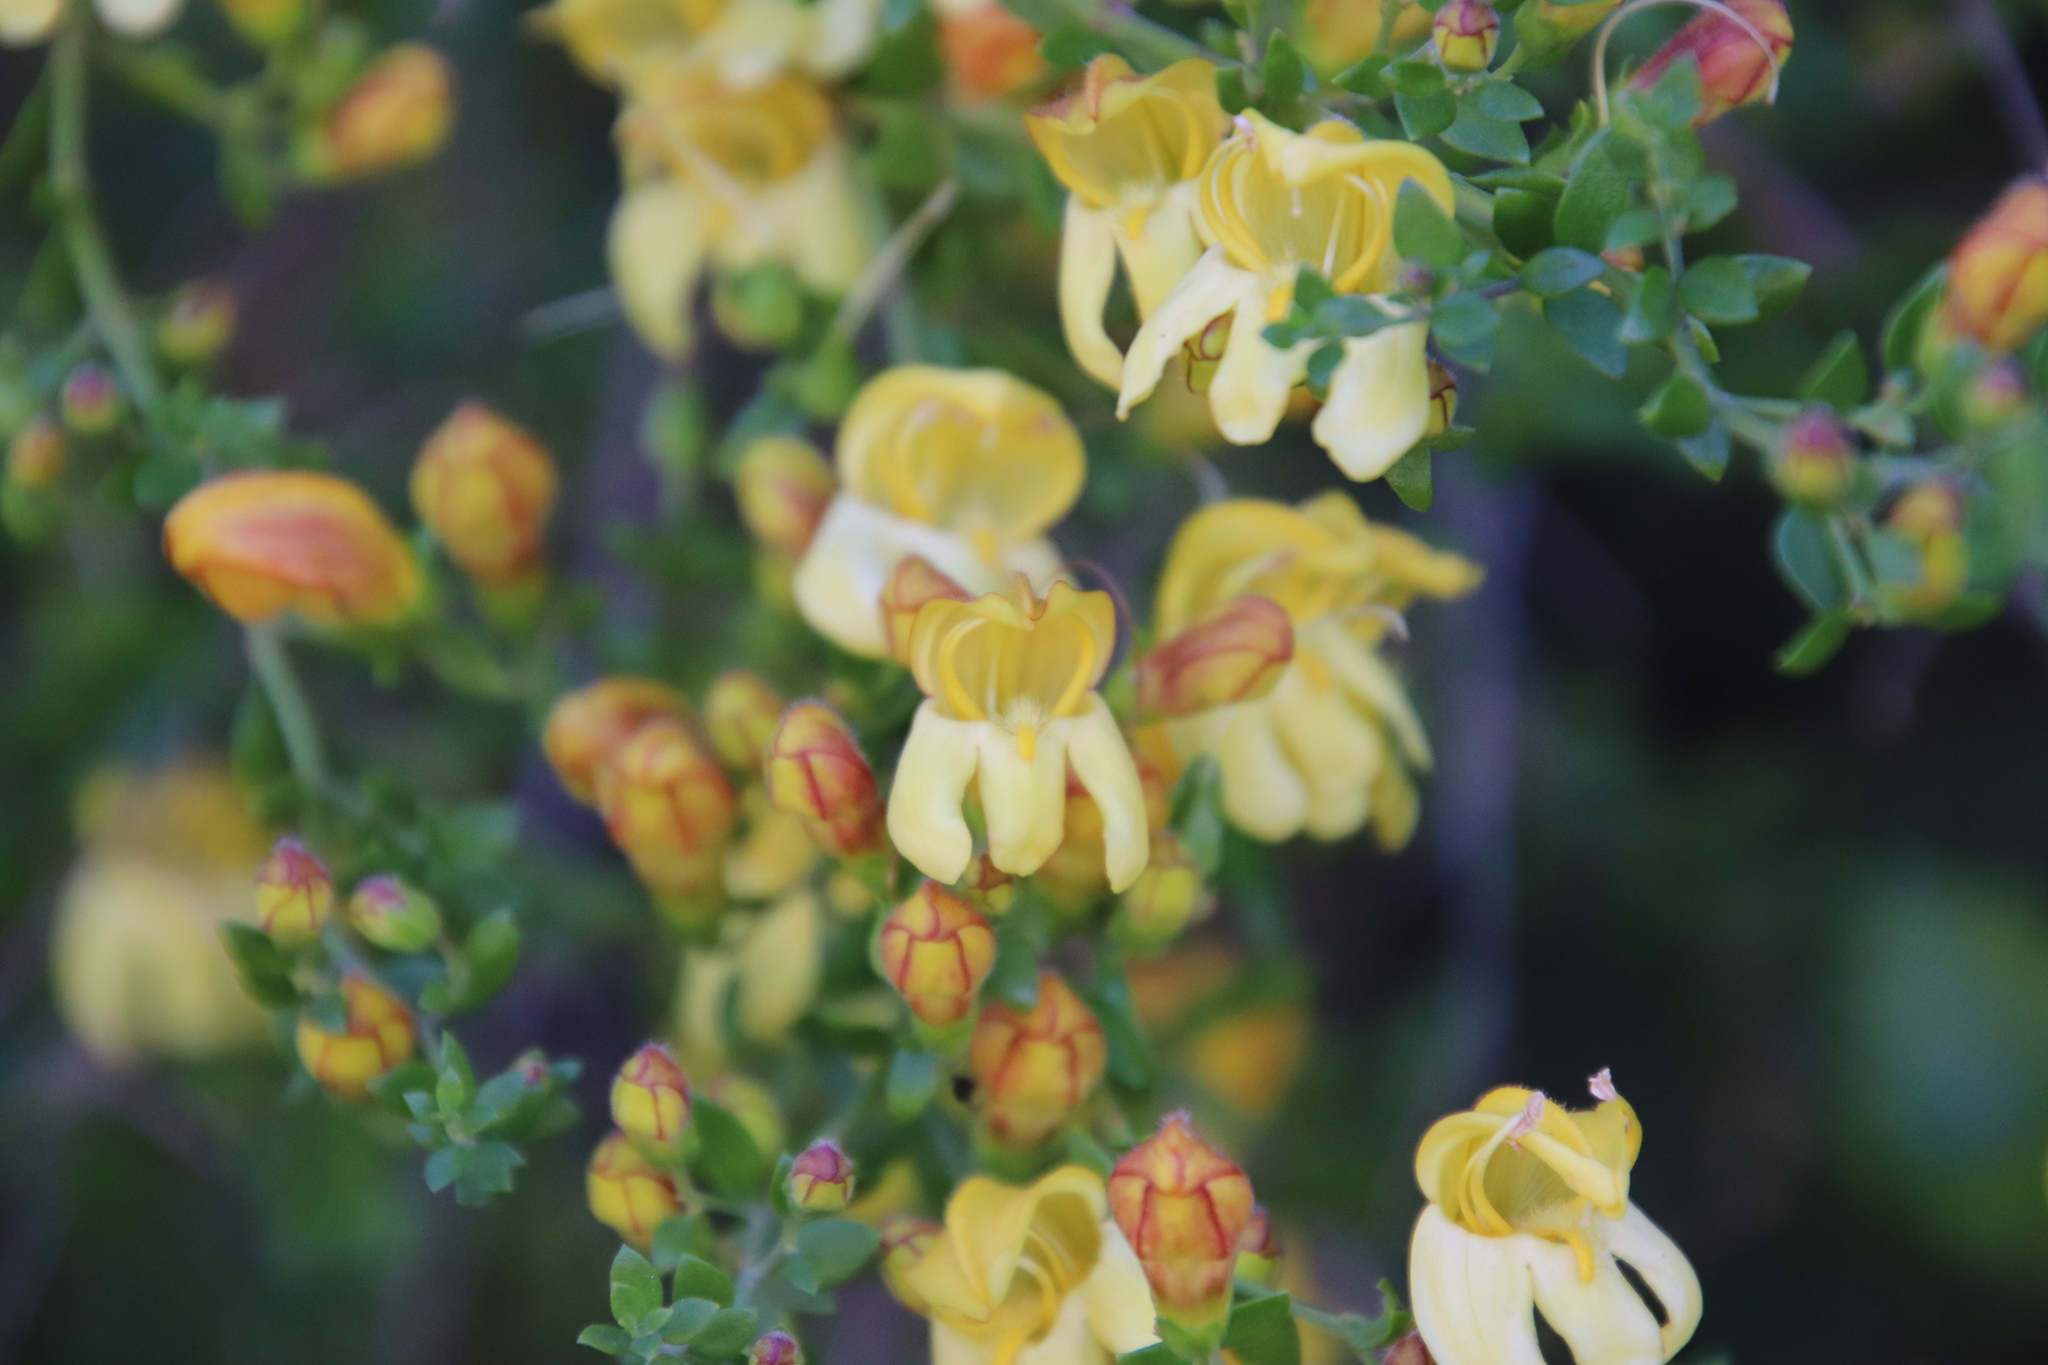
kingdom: Plantae
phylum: Tracheophyta
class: Magnoliopsida
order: Lamiales
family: Plantaginaceae
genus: Keckiella
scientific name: Keckiella antirrhinoides
